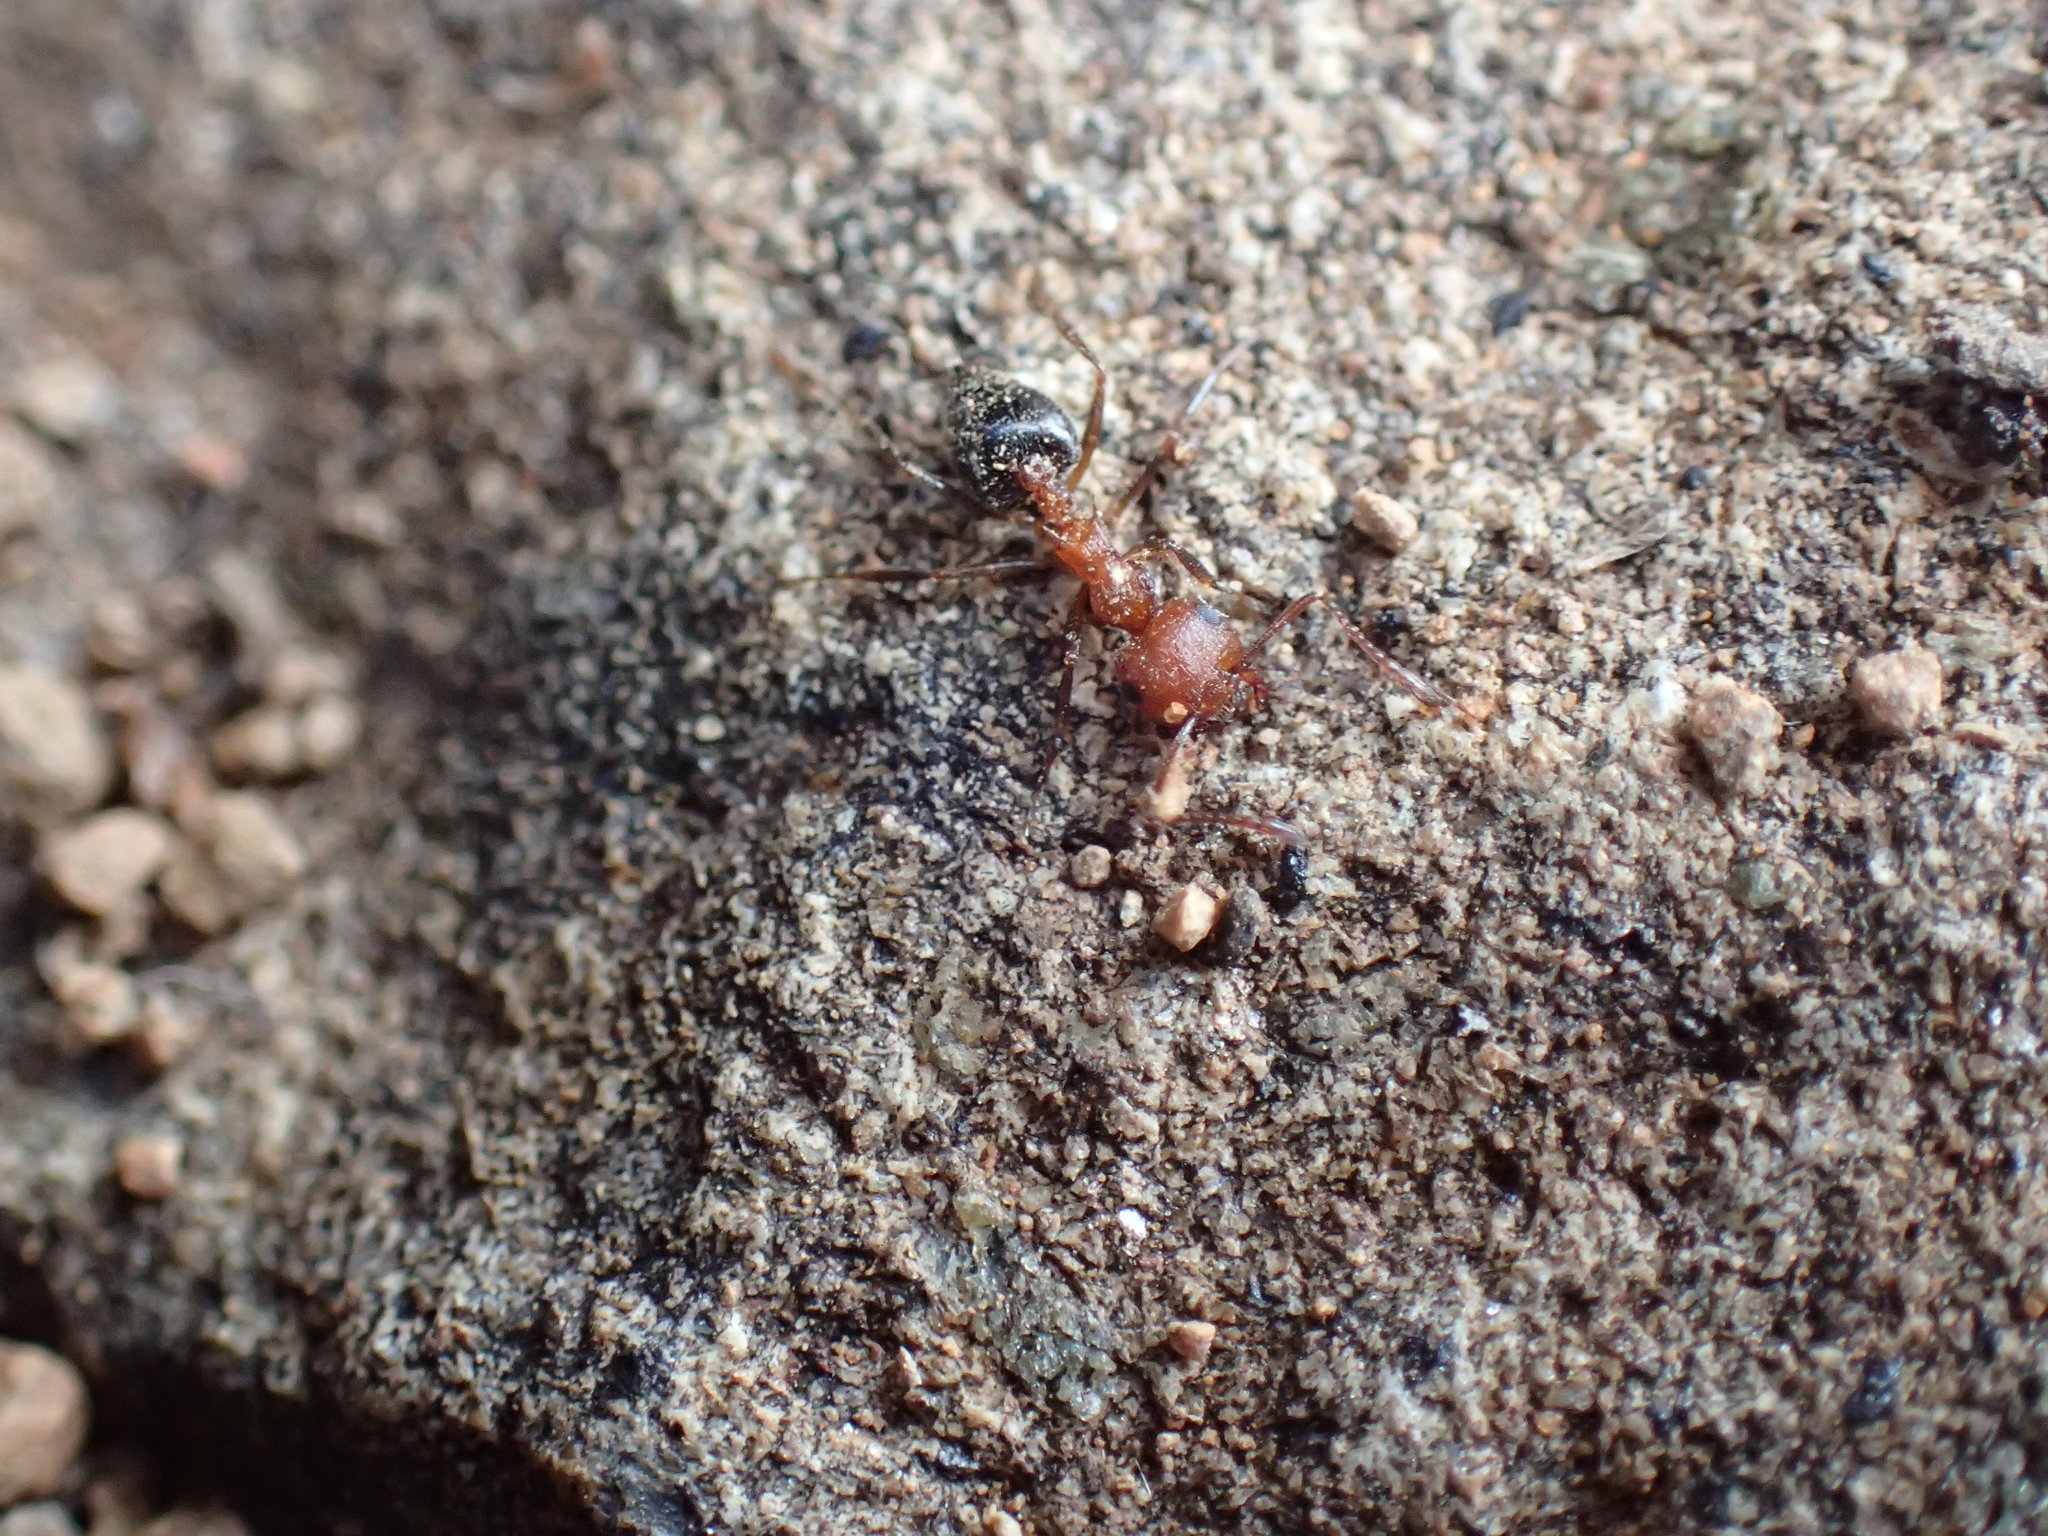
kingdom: Animalia
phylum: Arthropoda
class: Insecta
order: Hymenoptera
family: Formicidae
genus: Crematogaster
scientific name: Crematogaster melanogaster
